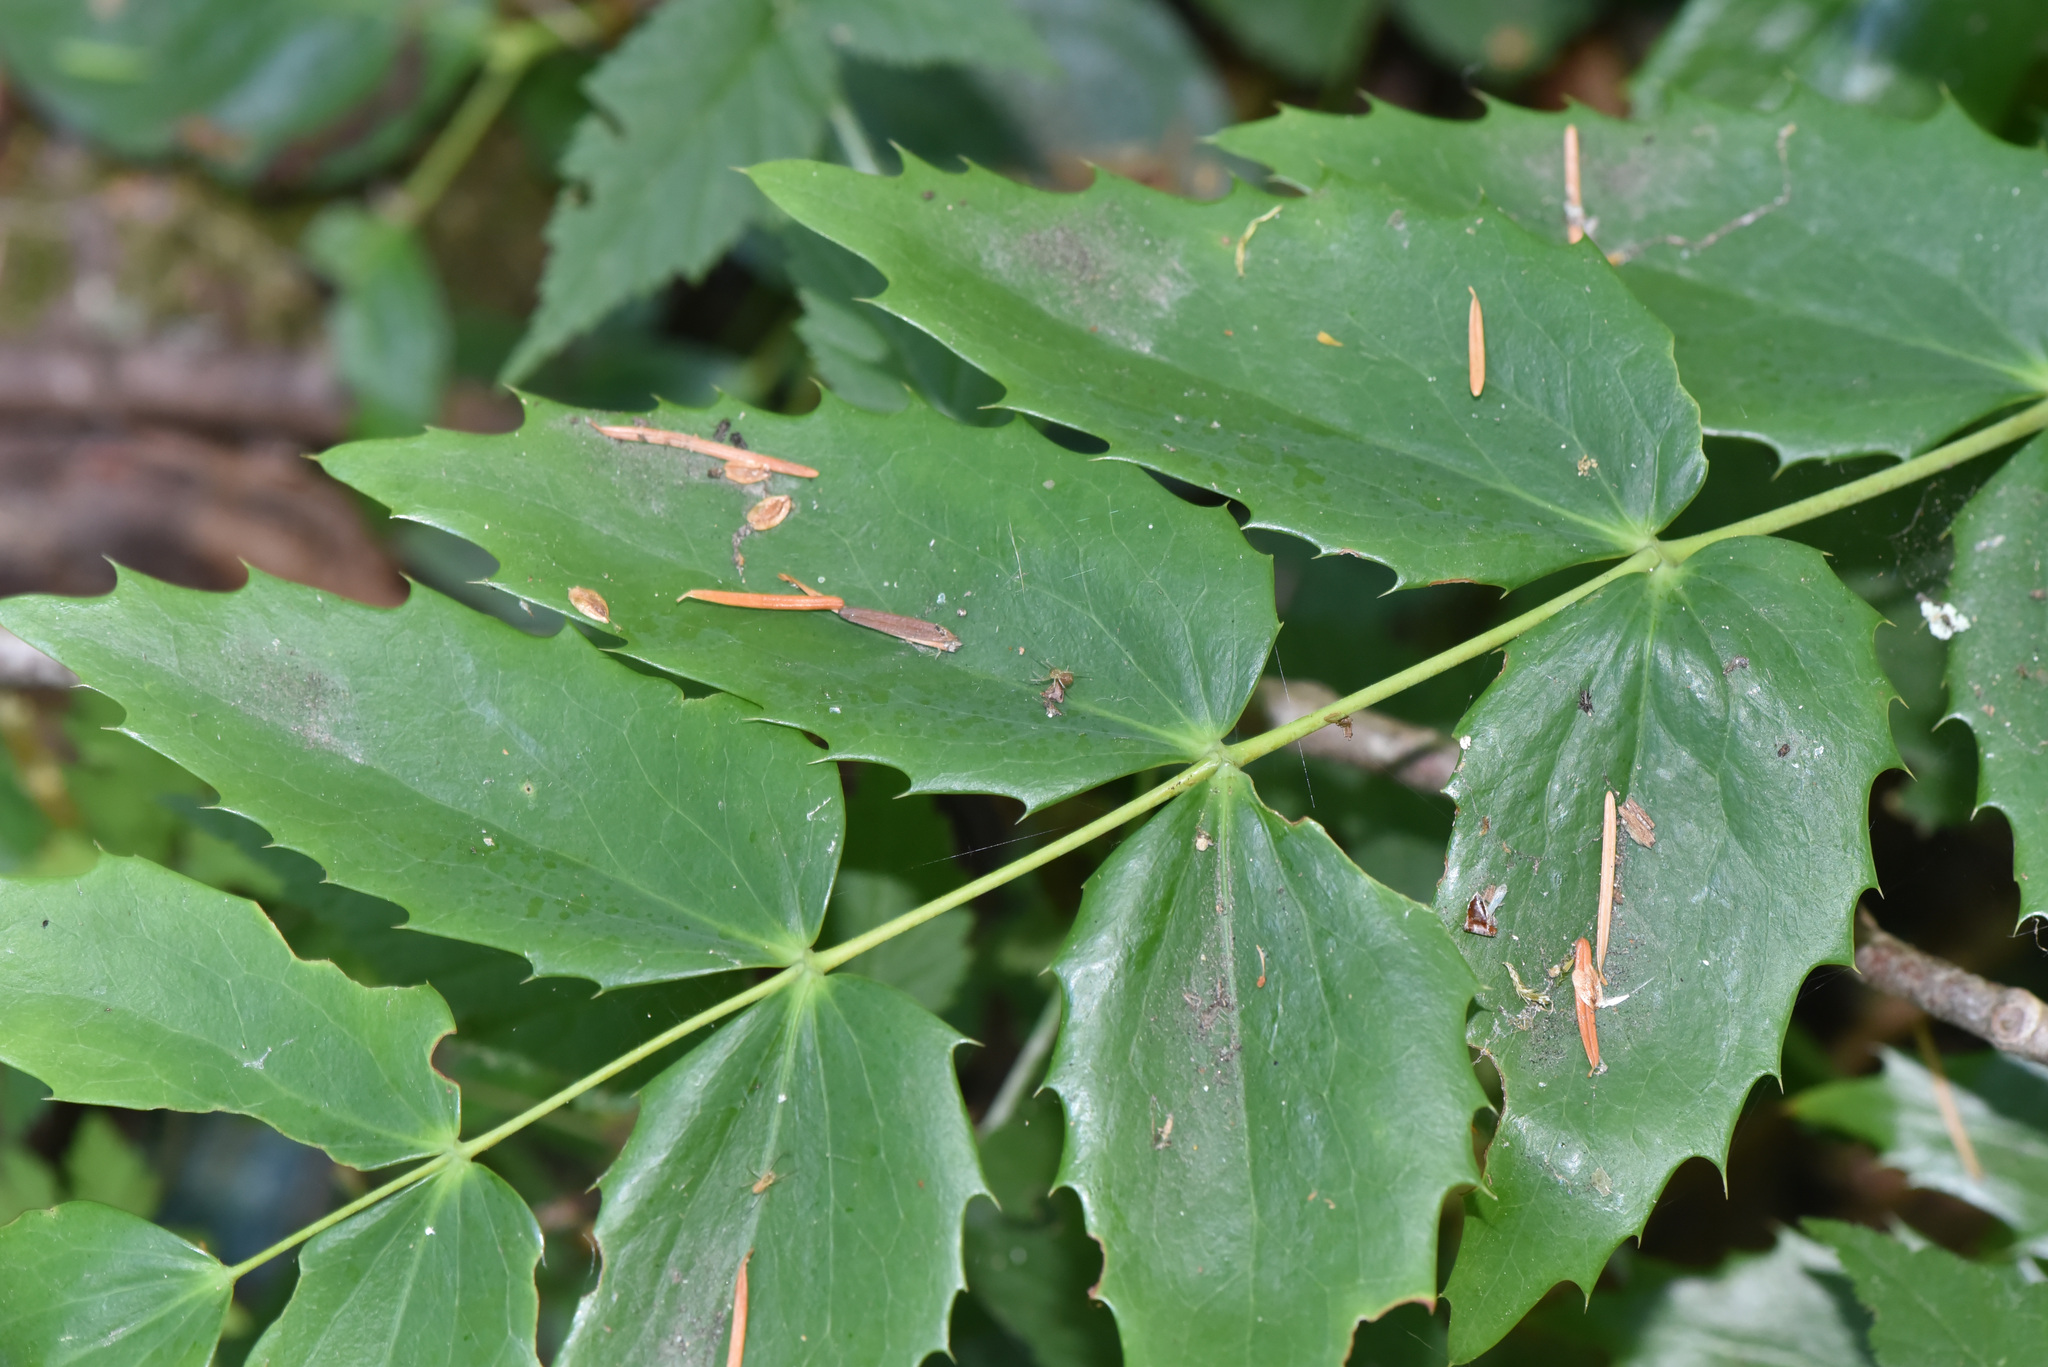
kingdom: Plantae
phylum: Tracheophyta
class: Magnoliopsida
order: Ranunculales
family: Berberidaceae
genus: Mahonia
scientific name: Mahonia nervosa
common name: Cascade oregon-grape
